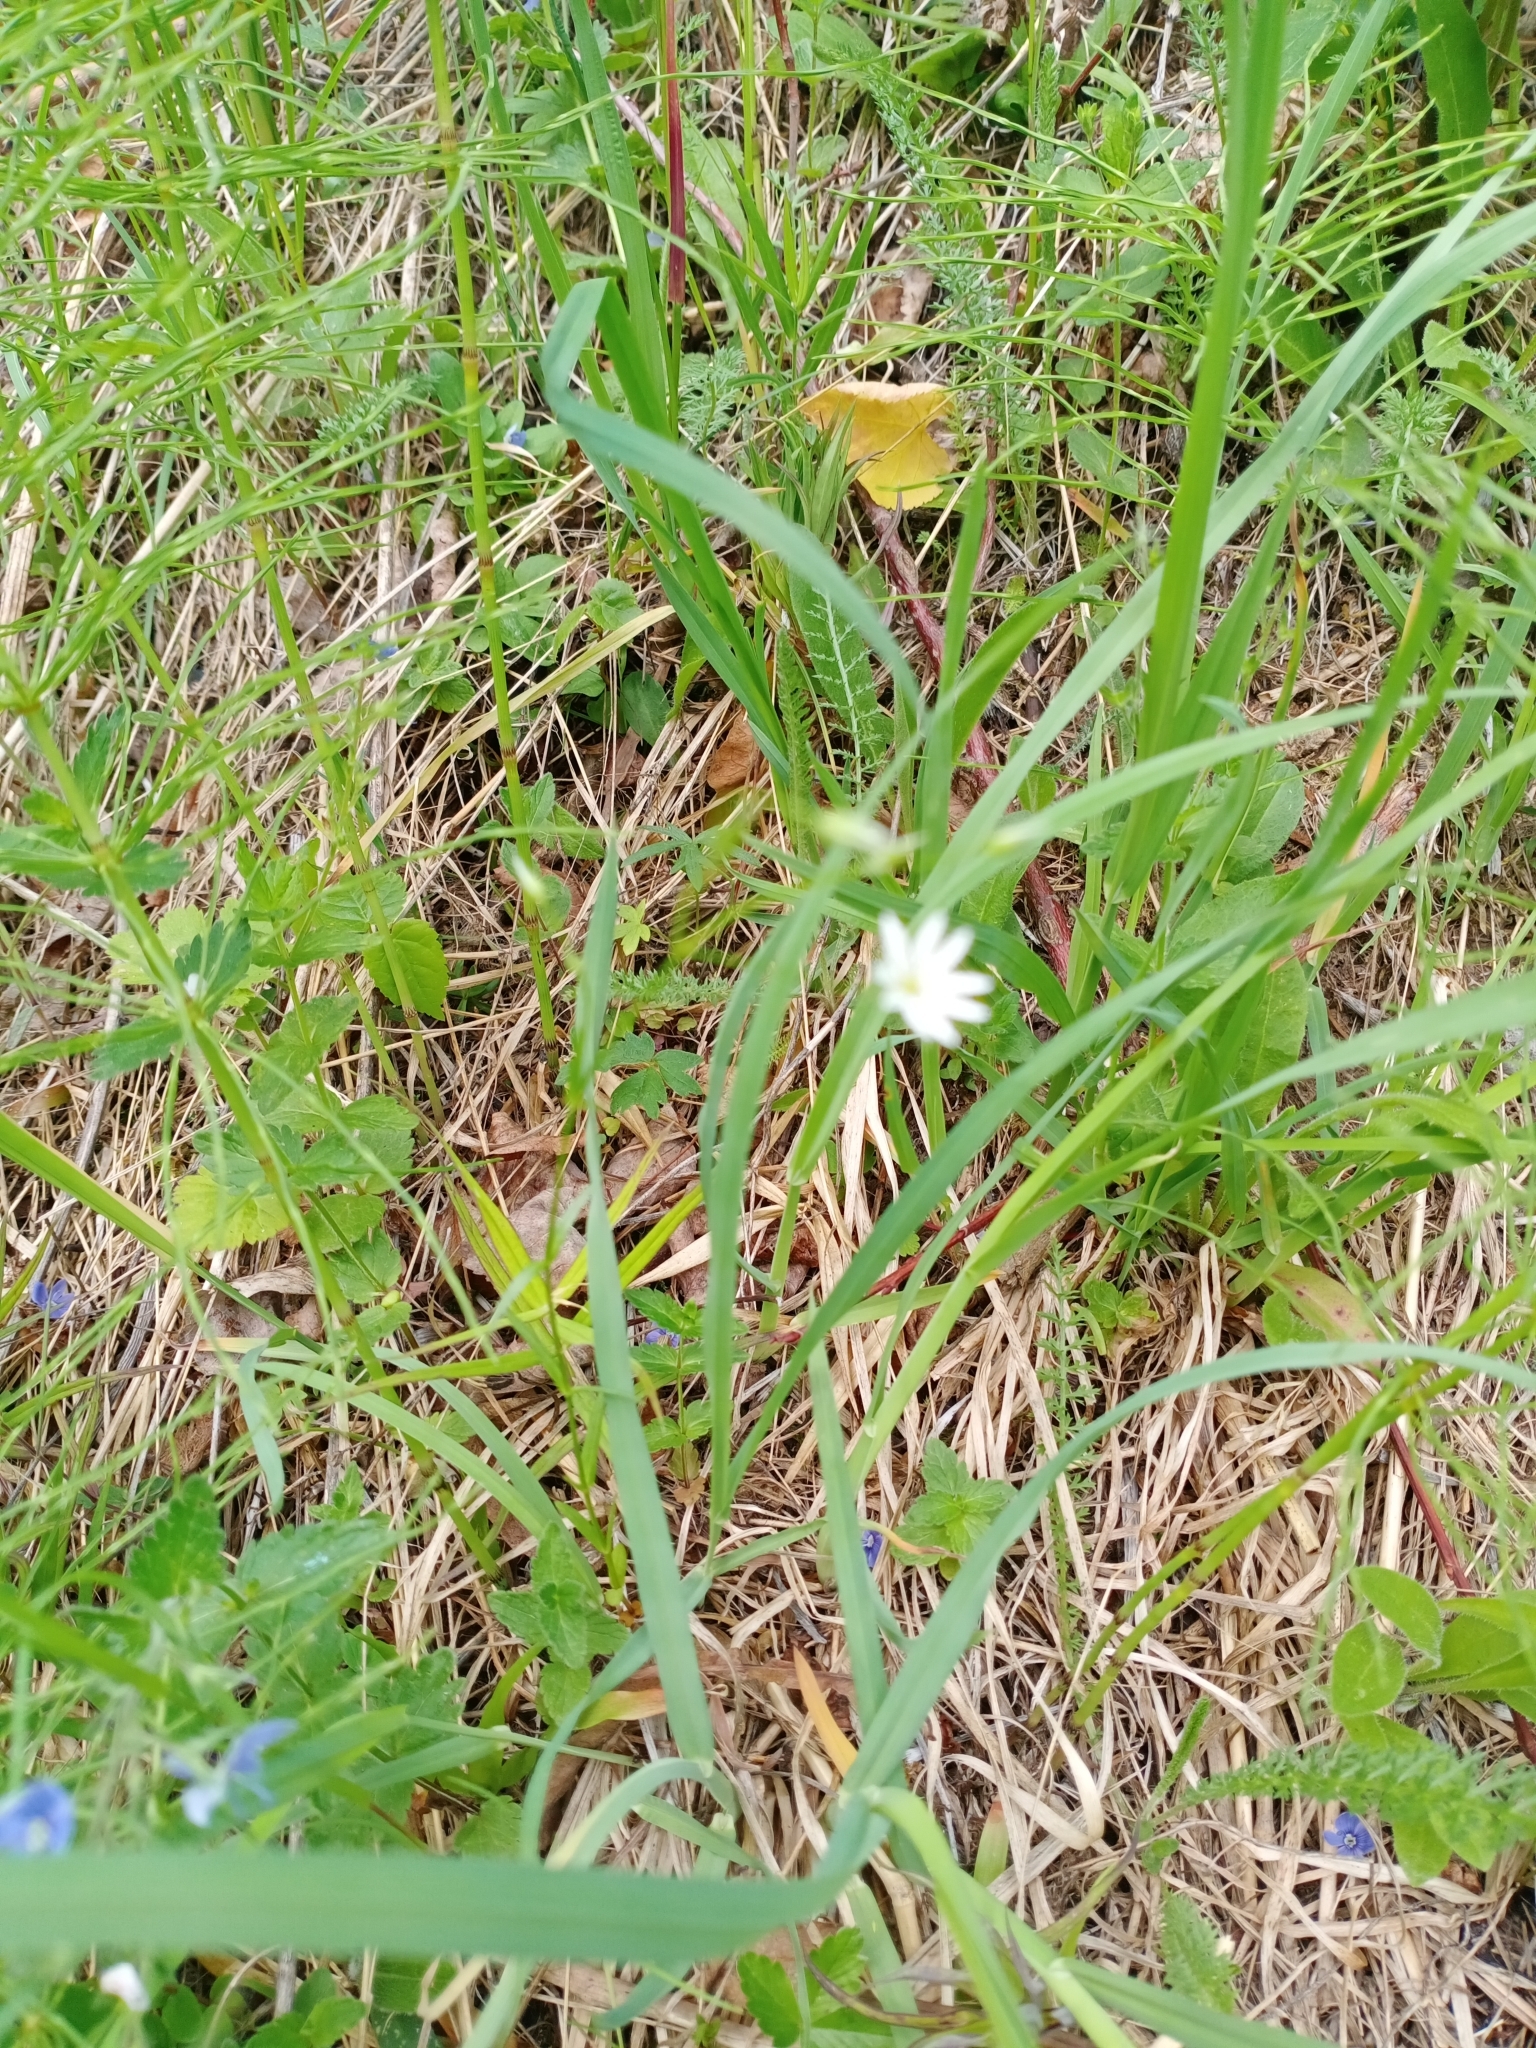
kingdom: Plantae
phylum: Tracheophyta
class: Magnoliopsida
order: Caryophyllales
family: Caryophyllaceae
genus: Stellaria
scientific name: Stellaria graminea
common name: Grass-like starwort
